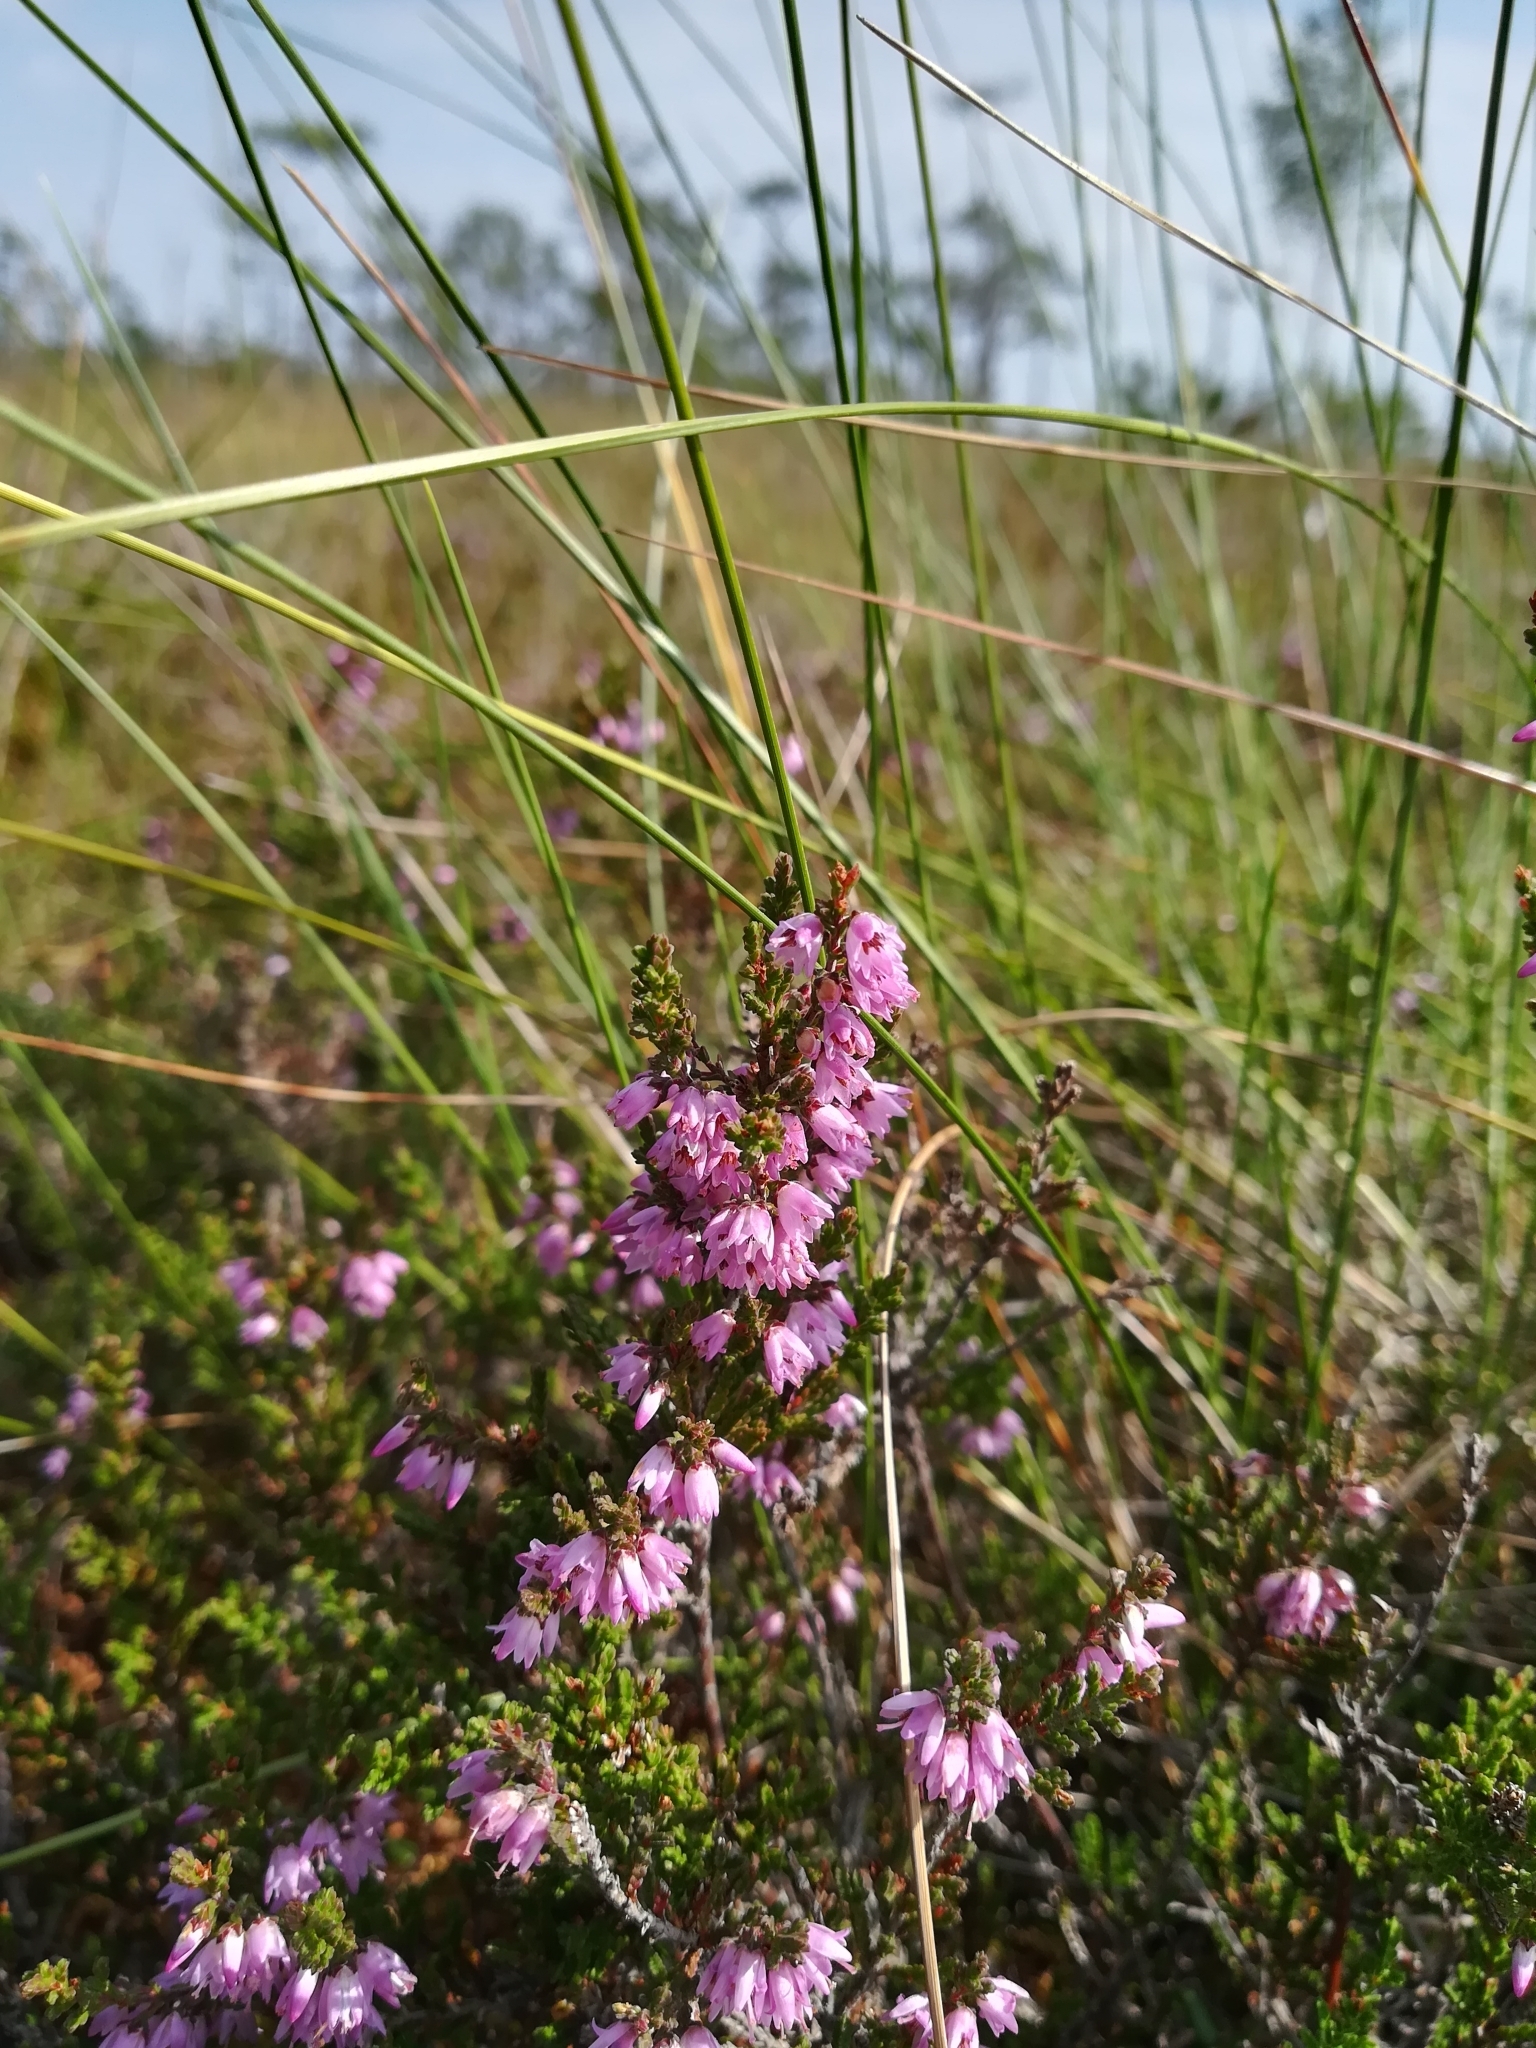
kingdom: Plantae
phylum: Tracheophyta
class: Magnoliopsida
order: Ericales
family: Ericaceae
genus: Calluna
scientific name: Calluna vulgaris
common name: Heather
